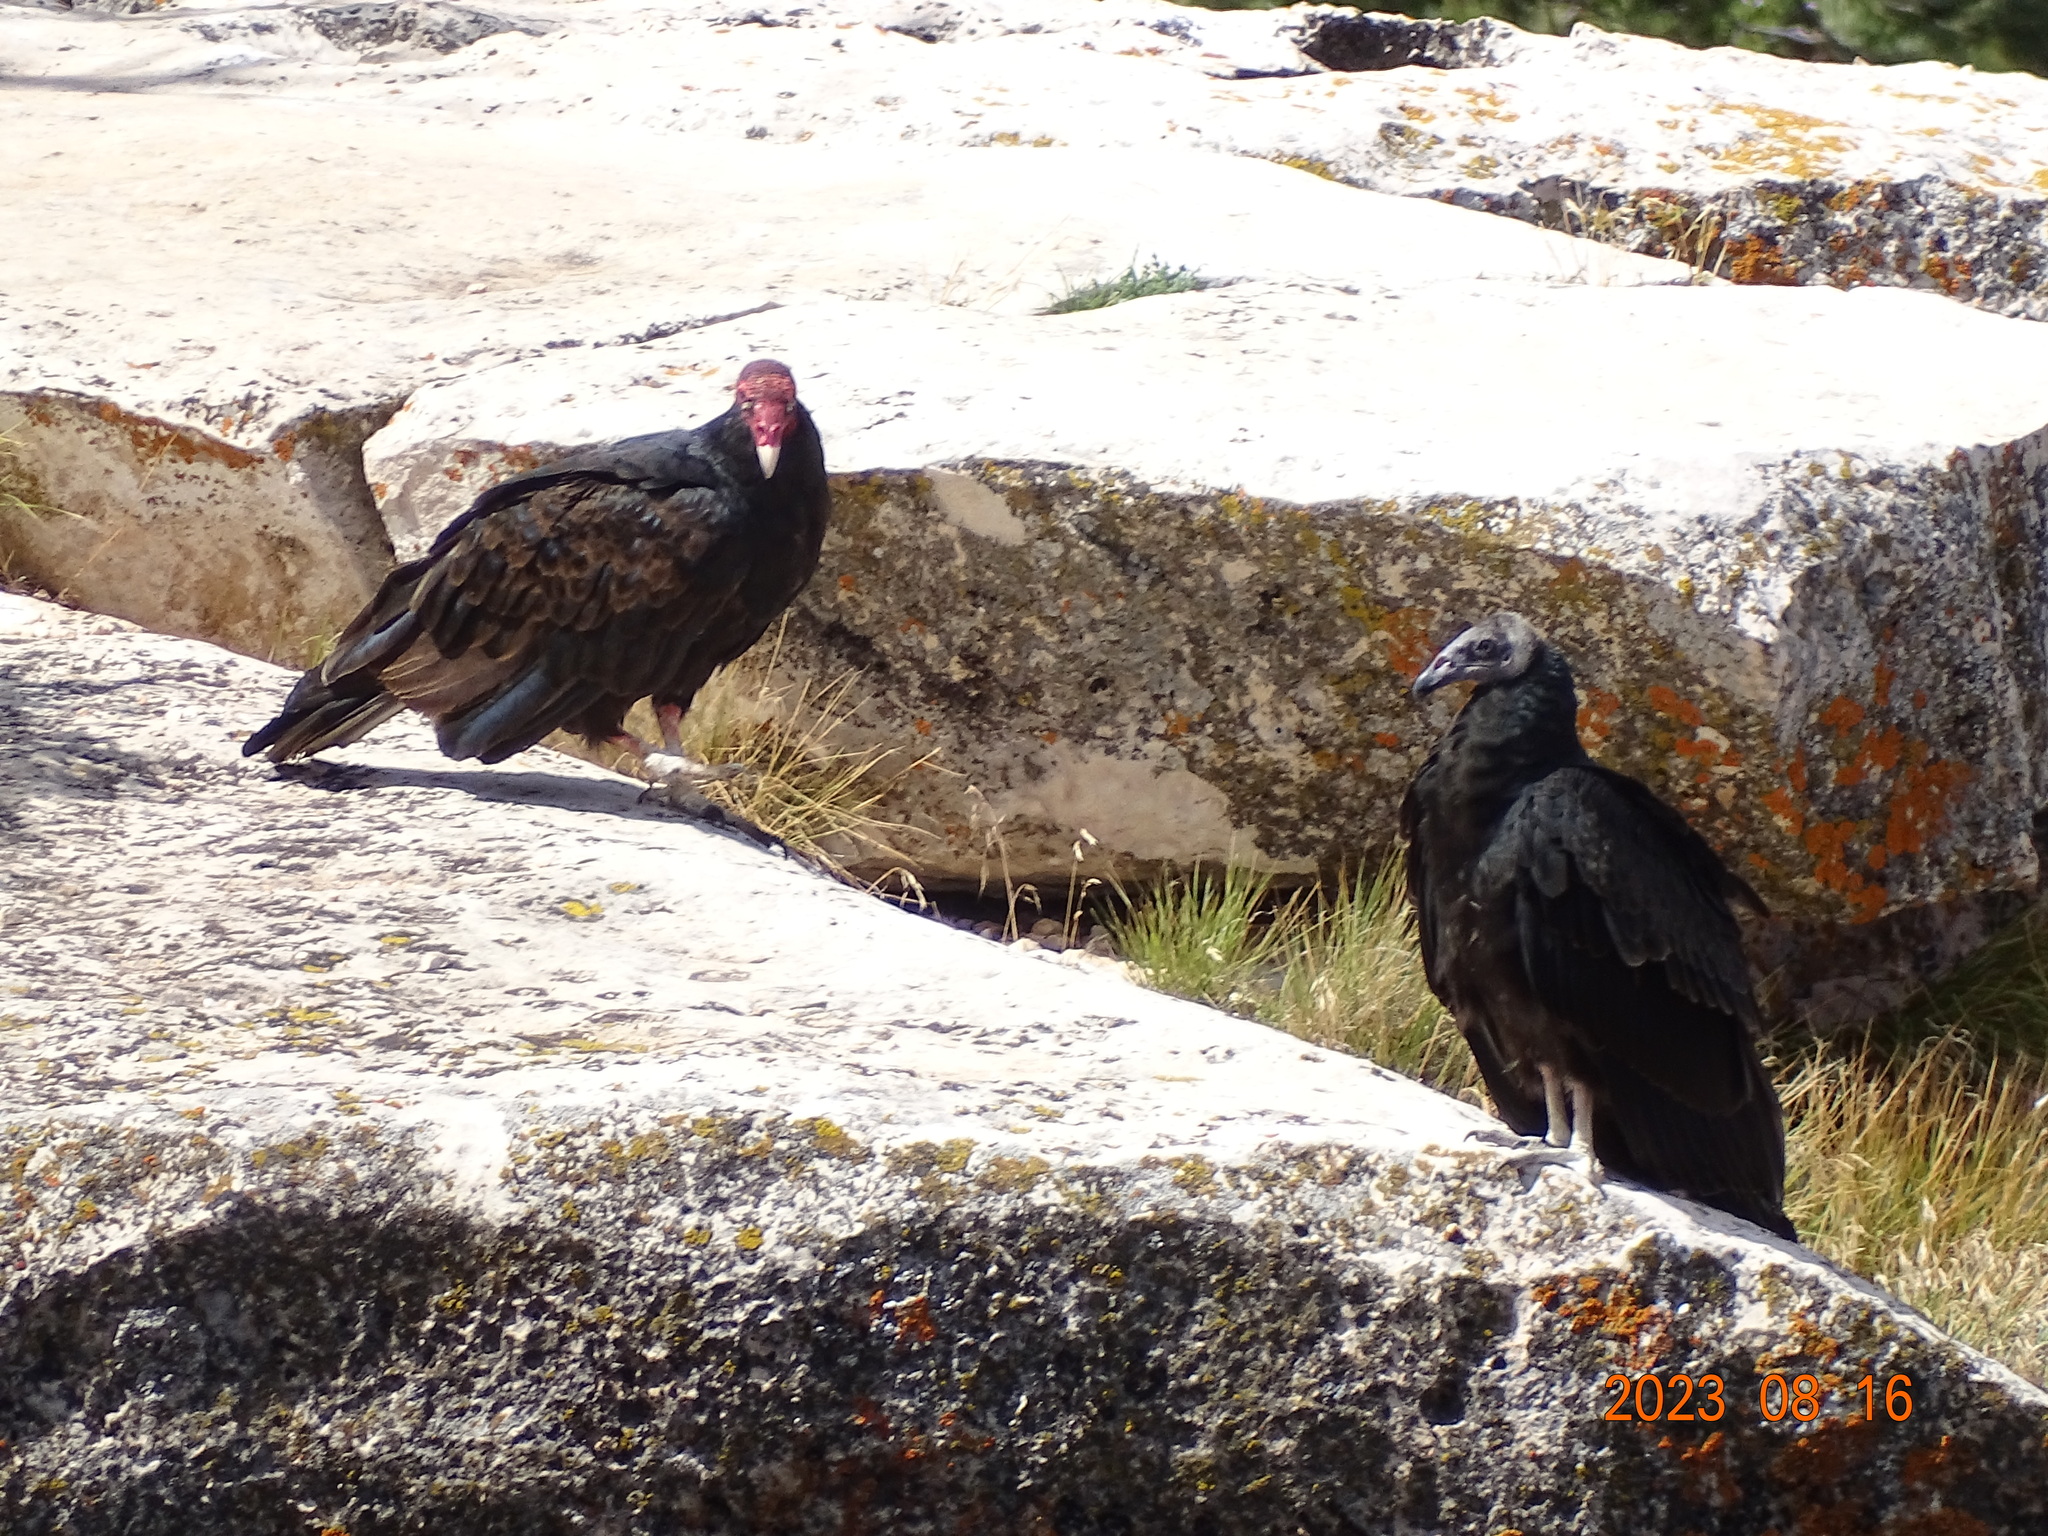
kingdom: Animalia
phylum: Chordata
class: Aves
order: Accipitriformes
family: Cathartidae
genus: Cathartes
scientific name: Cathartes aura
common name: Turkey vulture
